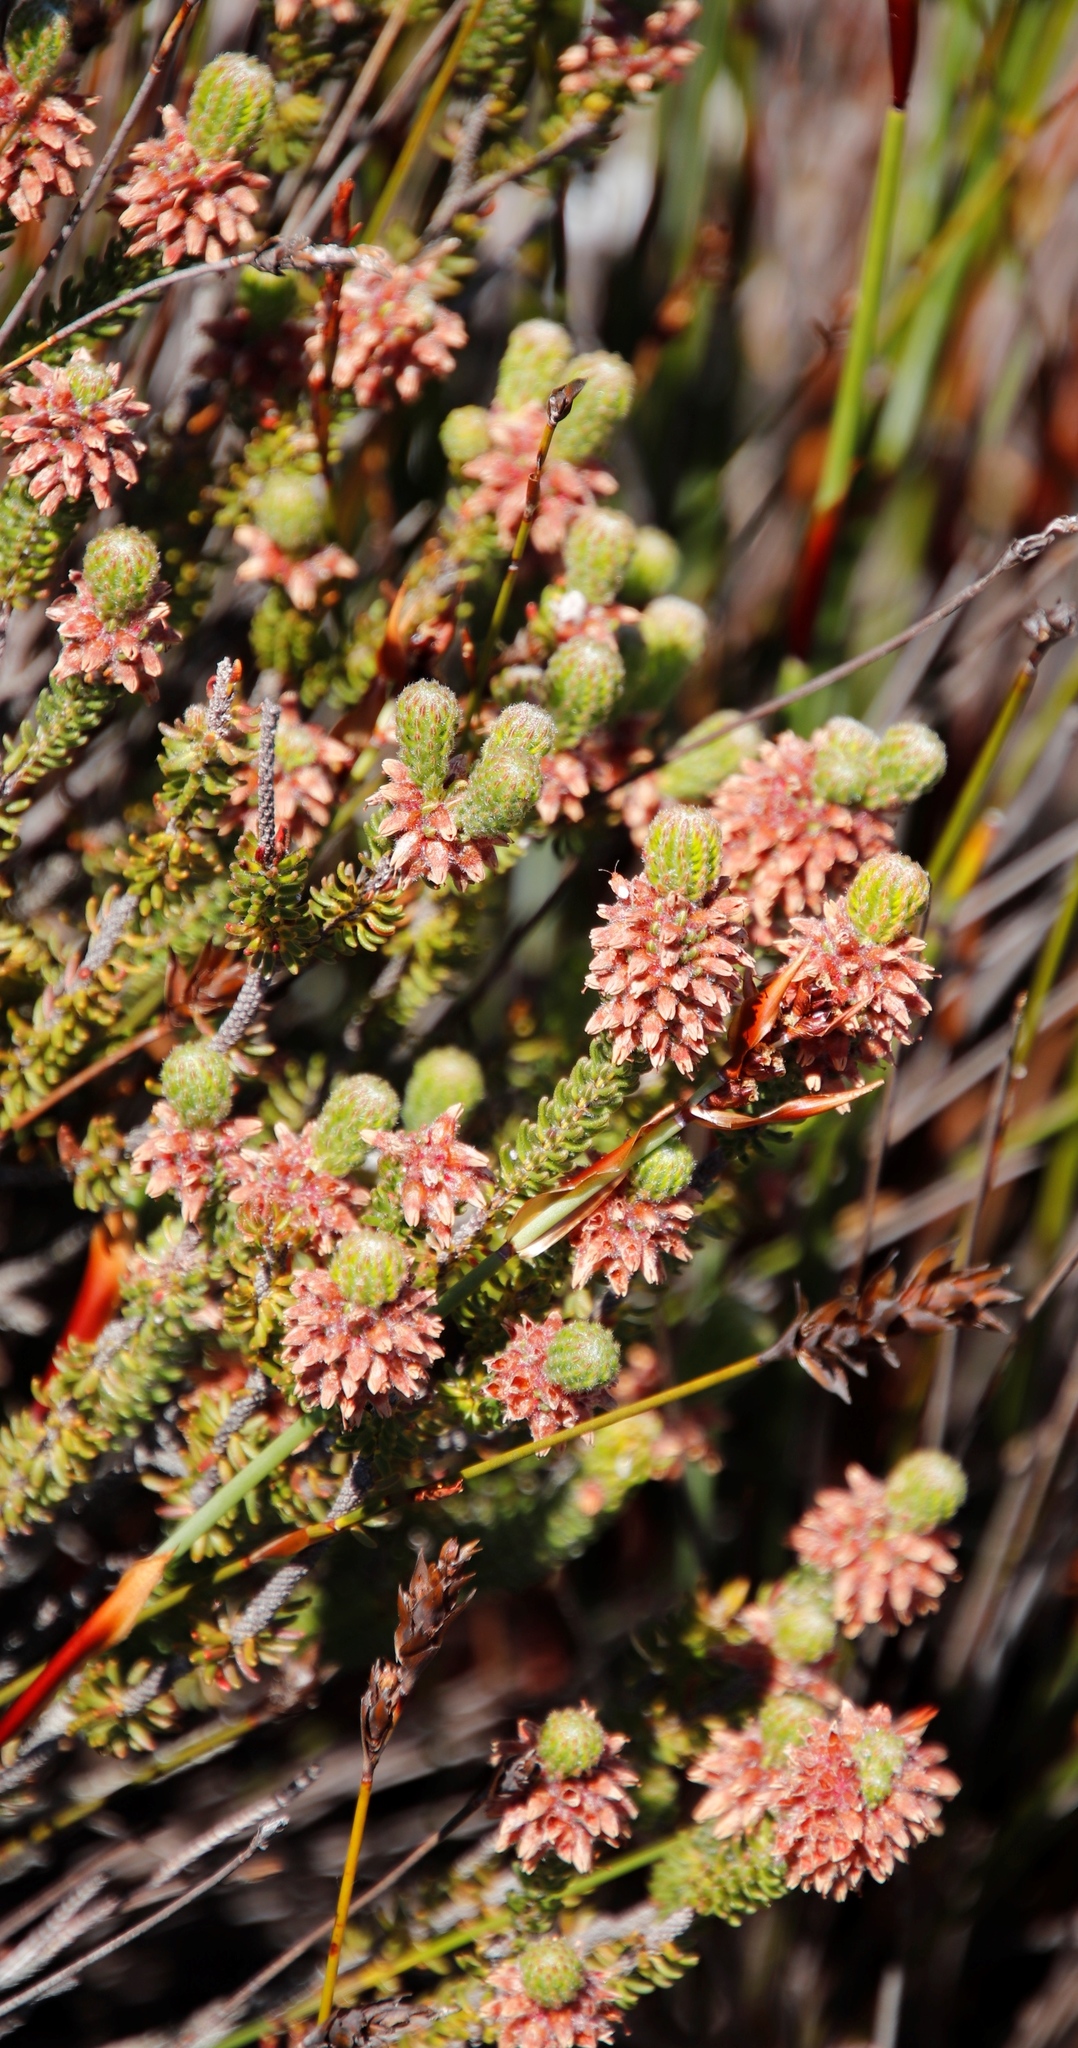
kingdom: Plantae
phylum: Tracheophyta
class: Magnoliopsida
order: Ericales
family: Ericaceae
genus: Erica
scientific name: Erica empetrina
